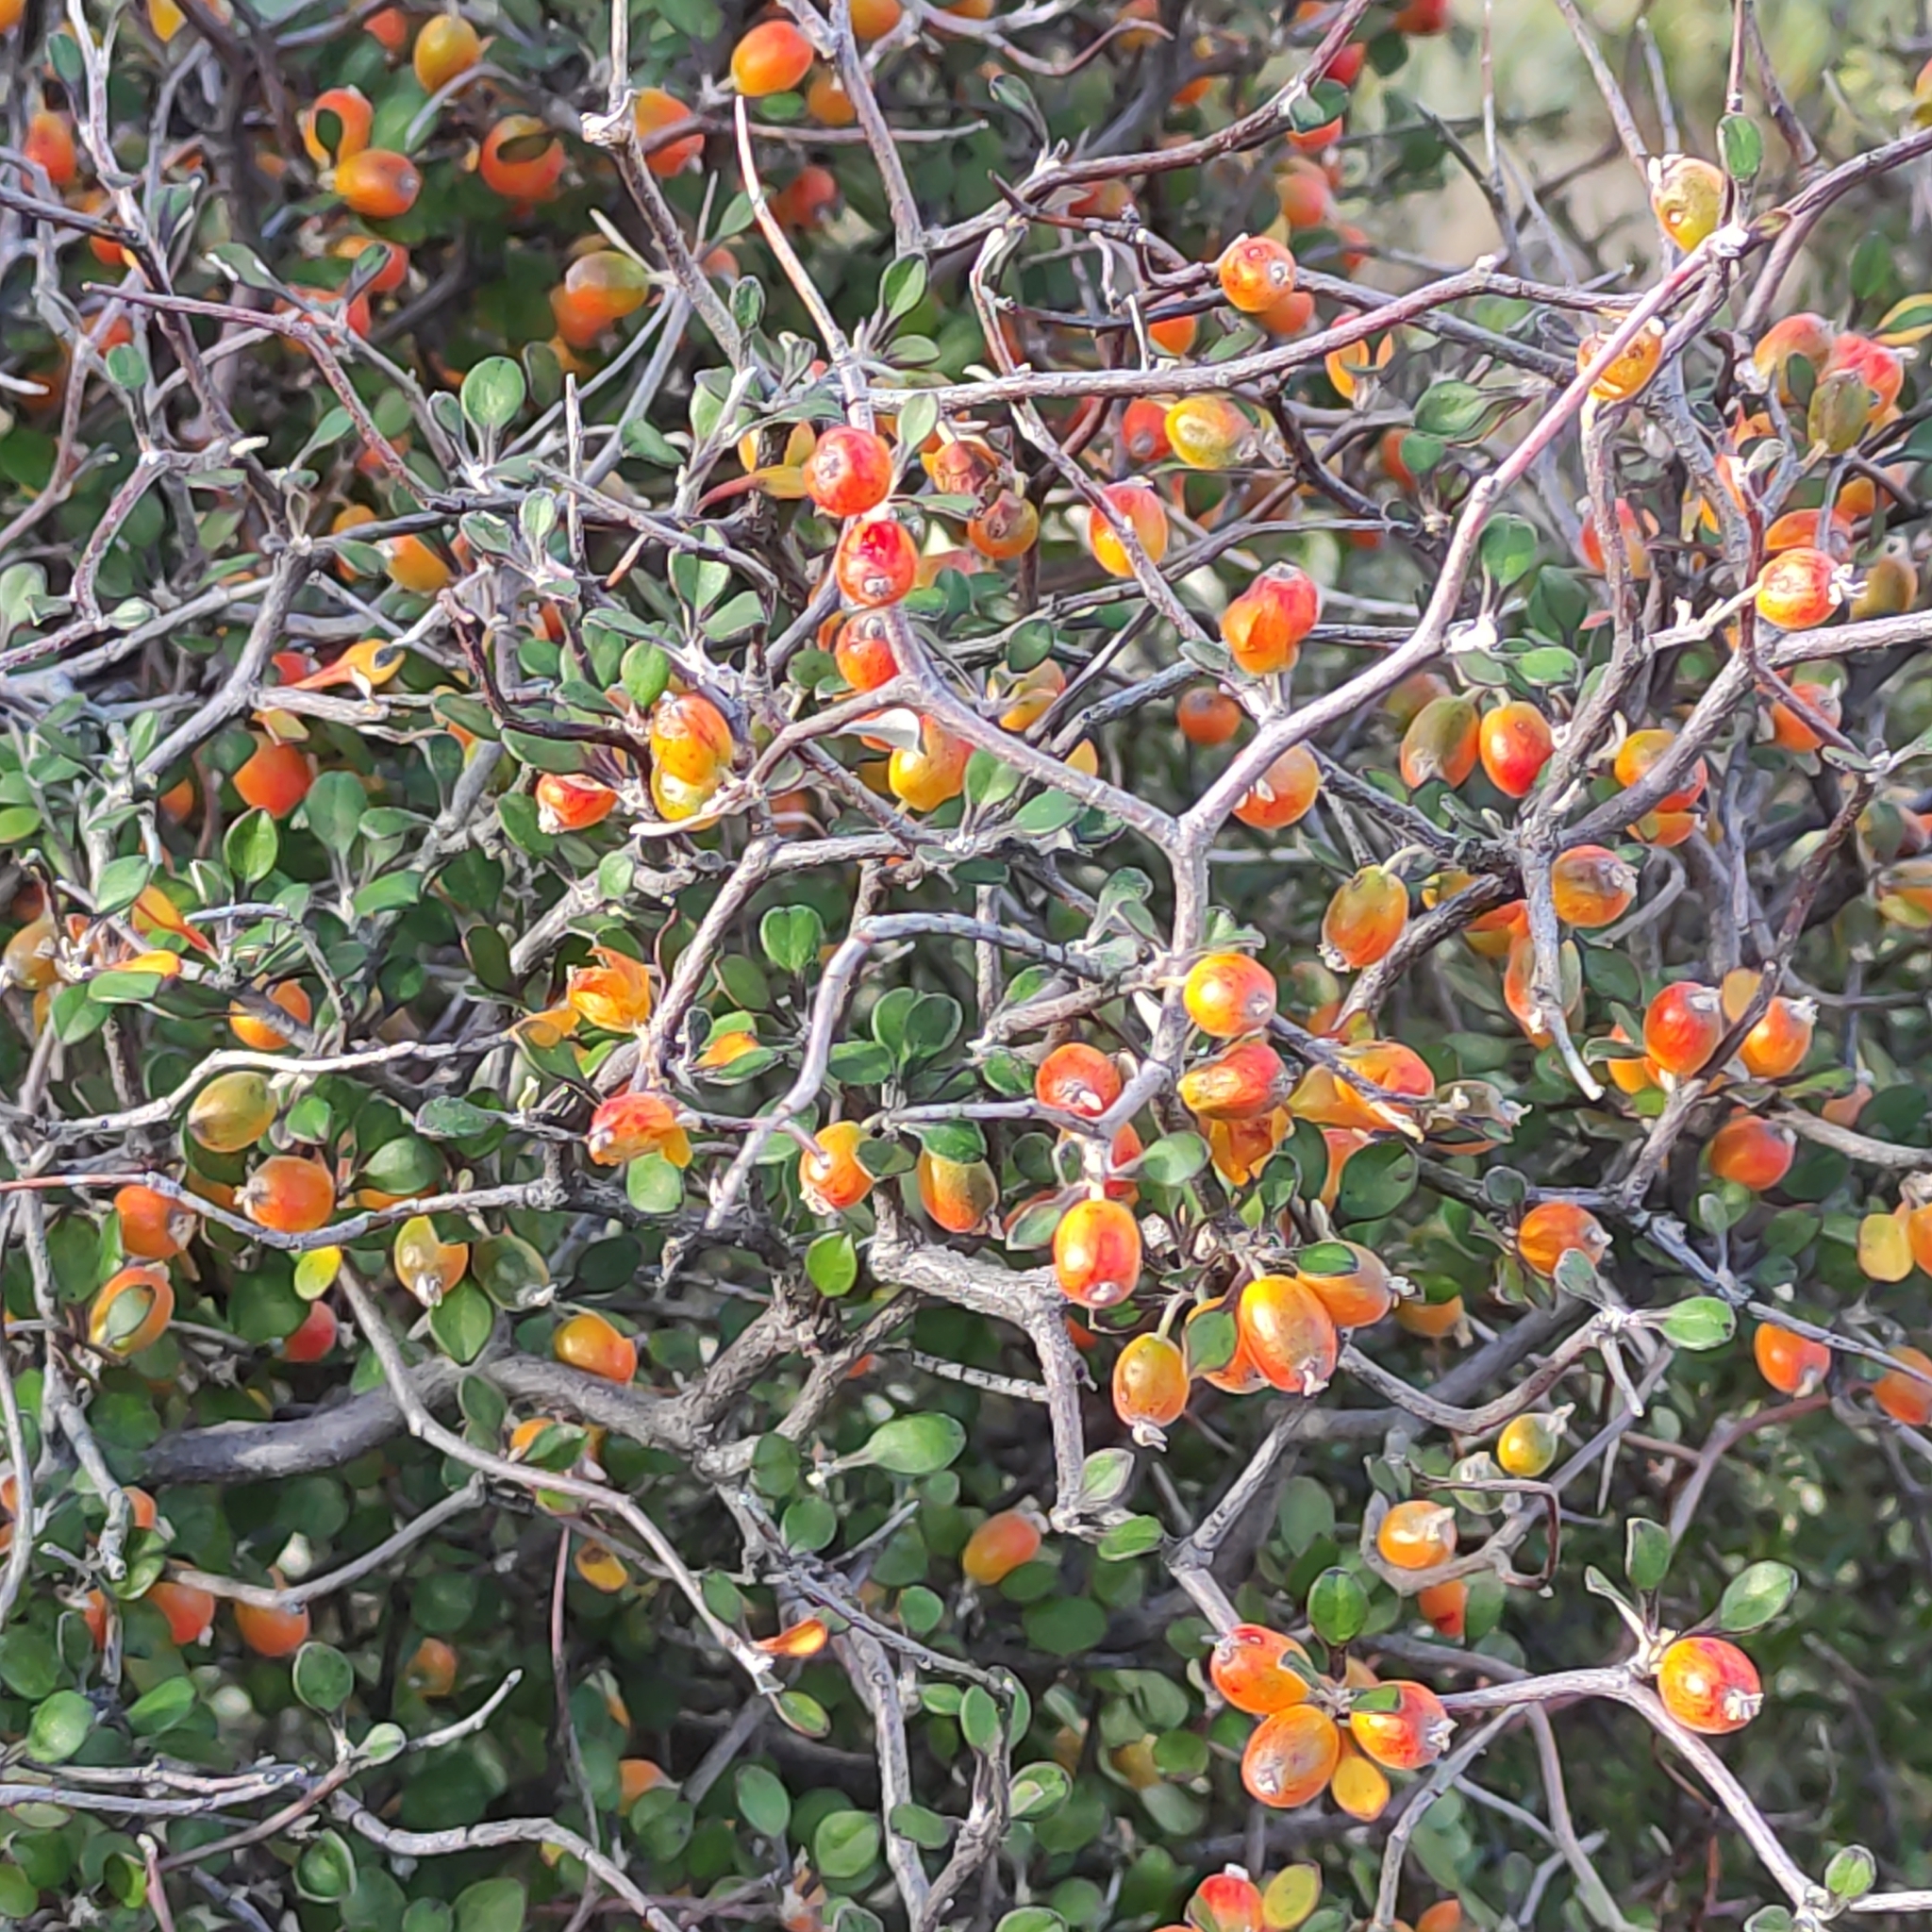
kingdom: Plantae
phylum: Tracheophyta
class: Magnoliopsida
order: Asterales
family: Argophyllaceae
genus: Corokia
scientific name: Corokia cotoneaster
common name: Wire nettingbush
